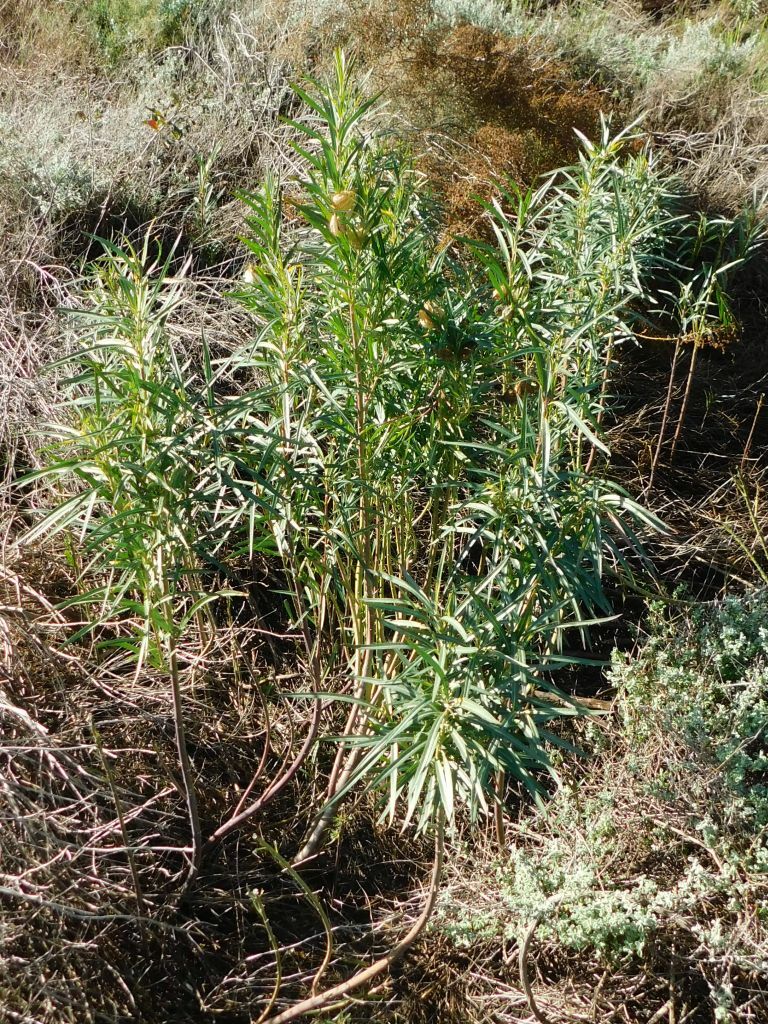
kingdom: Plantae
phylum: Tracheophyta
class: Magnoliopsida
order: Gentianales
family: Apocynaceae
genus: Gomphocarpus
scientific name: Gomphocarpus fruticosus
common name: Milkweed
